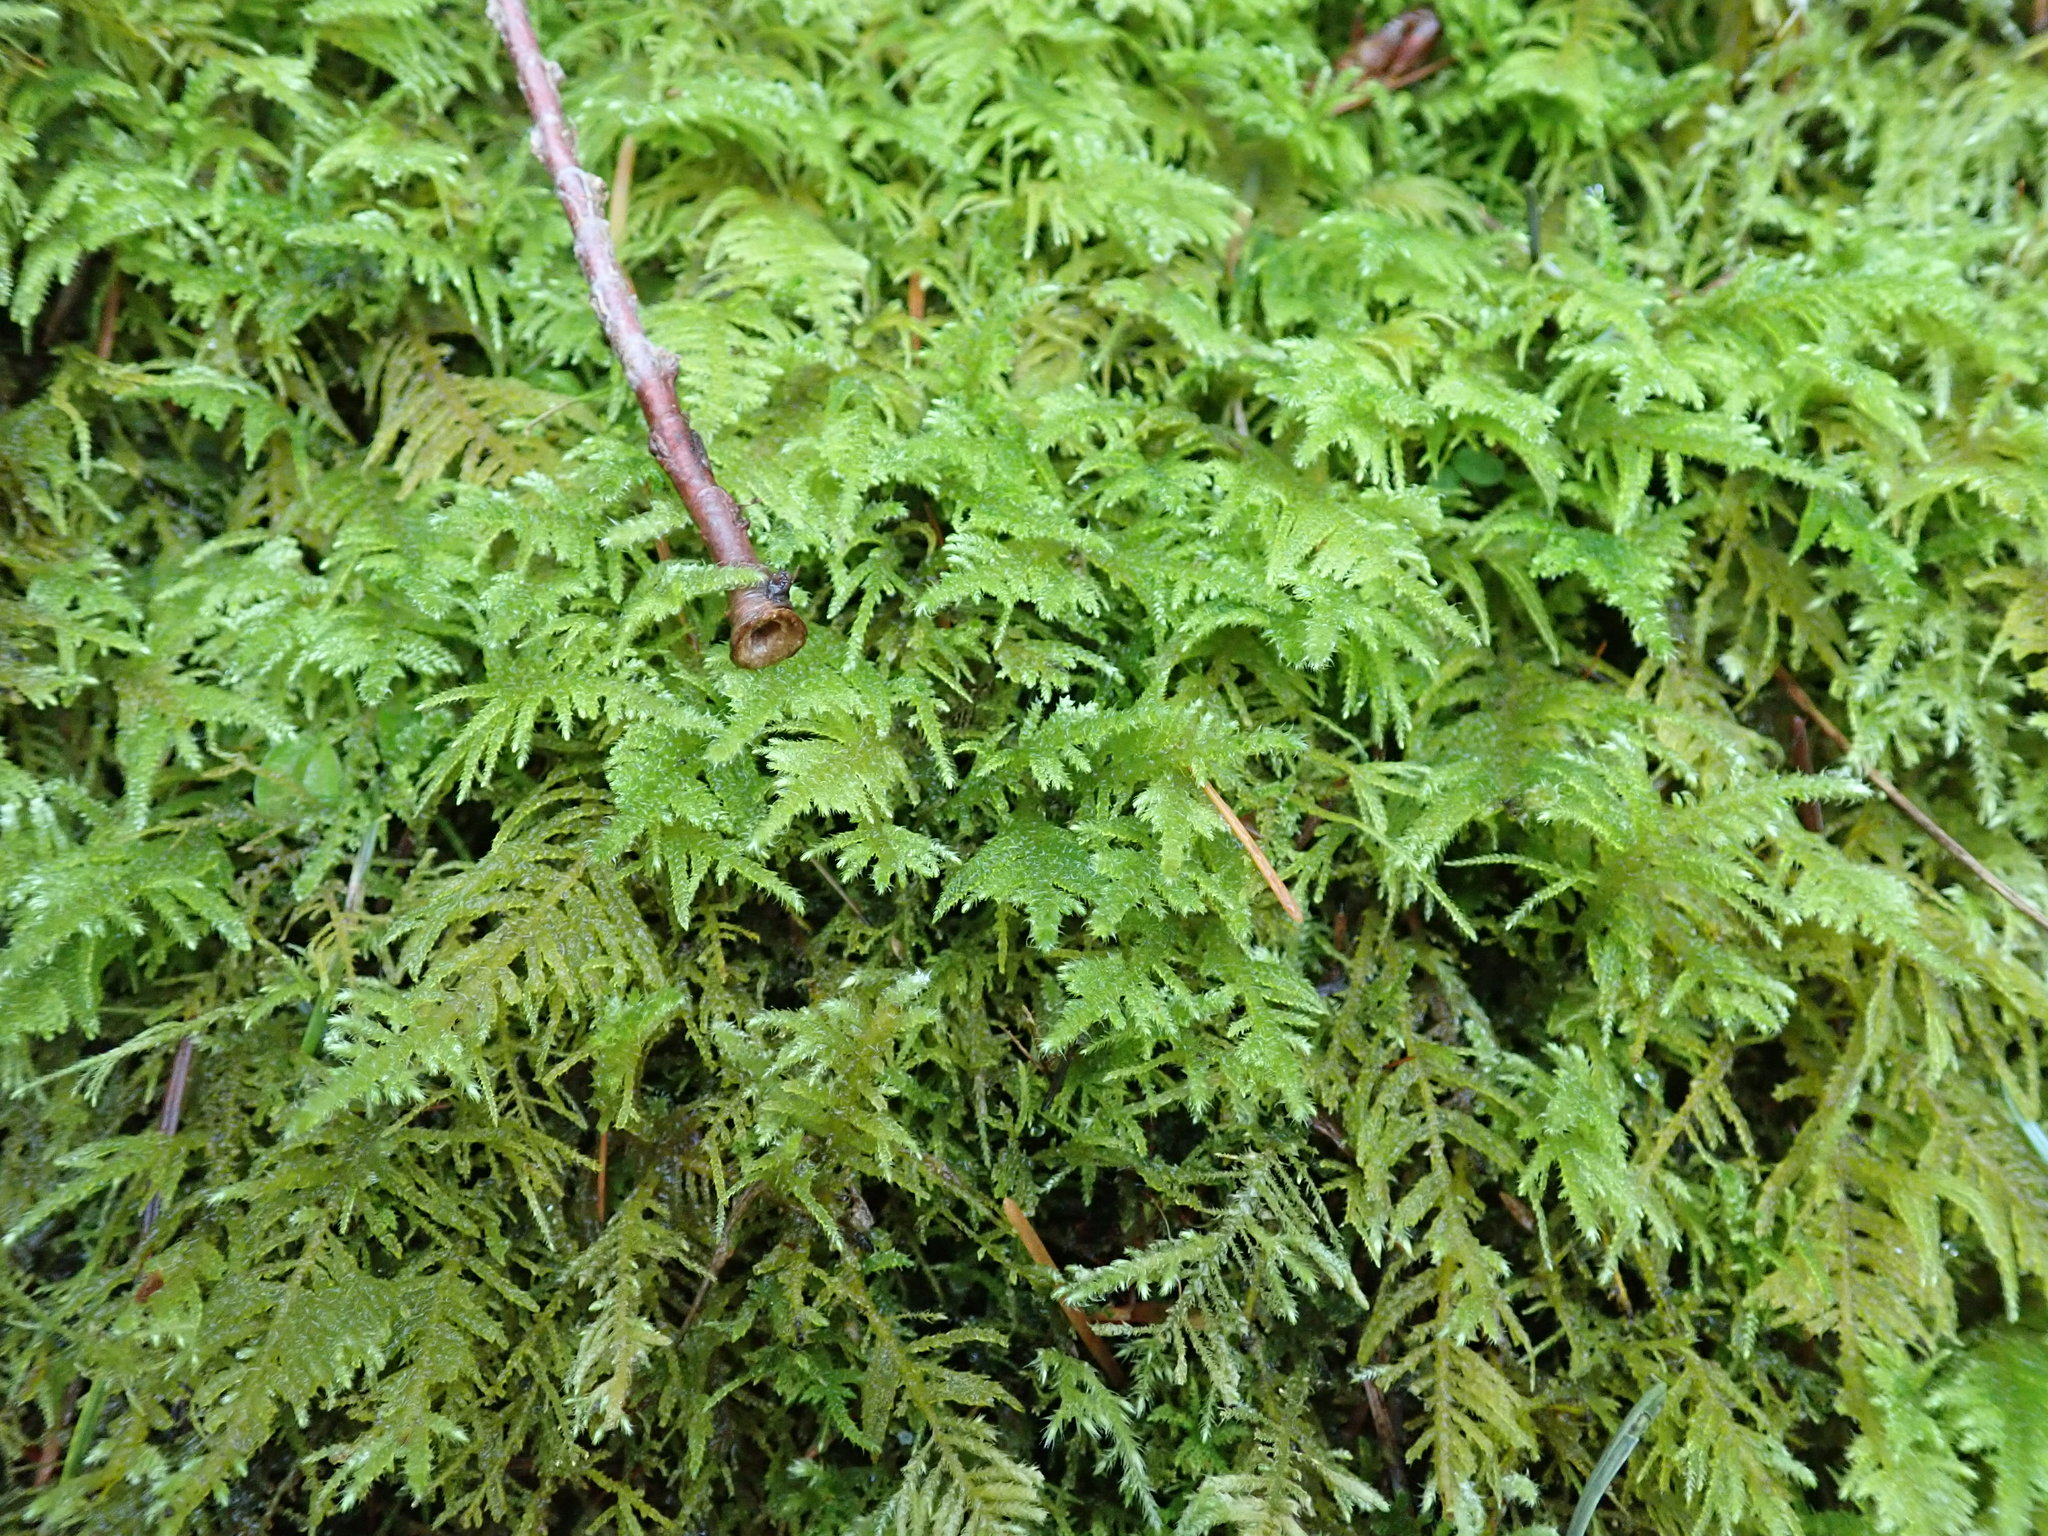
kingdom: Plantae
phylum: Bryophyta
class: Bryopsida
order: Hypnales
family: Brachytheciaceae
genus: Kindbergia
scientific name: Kindbergia oregana
